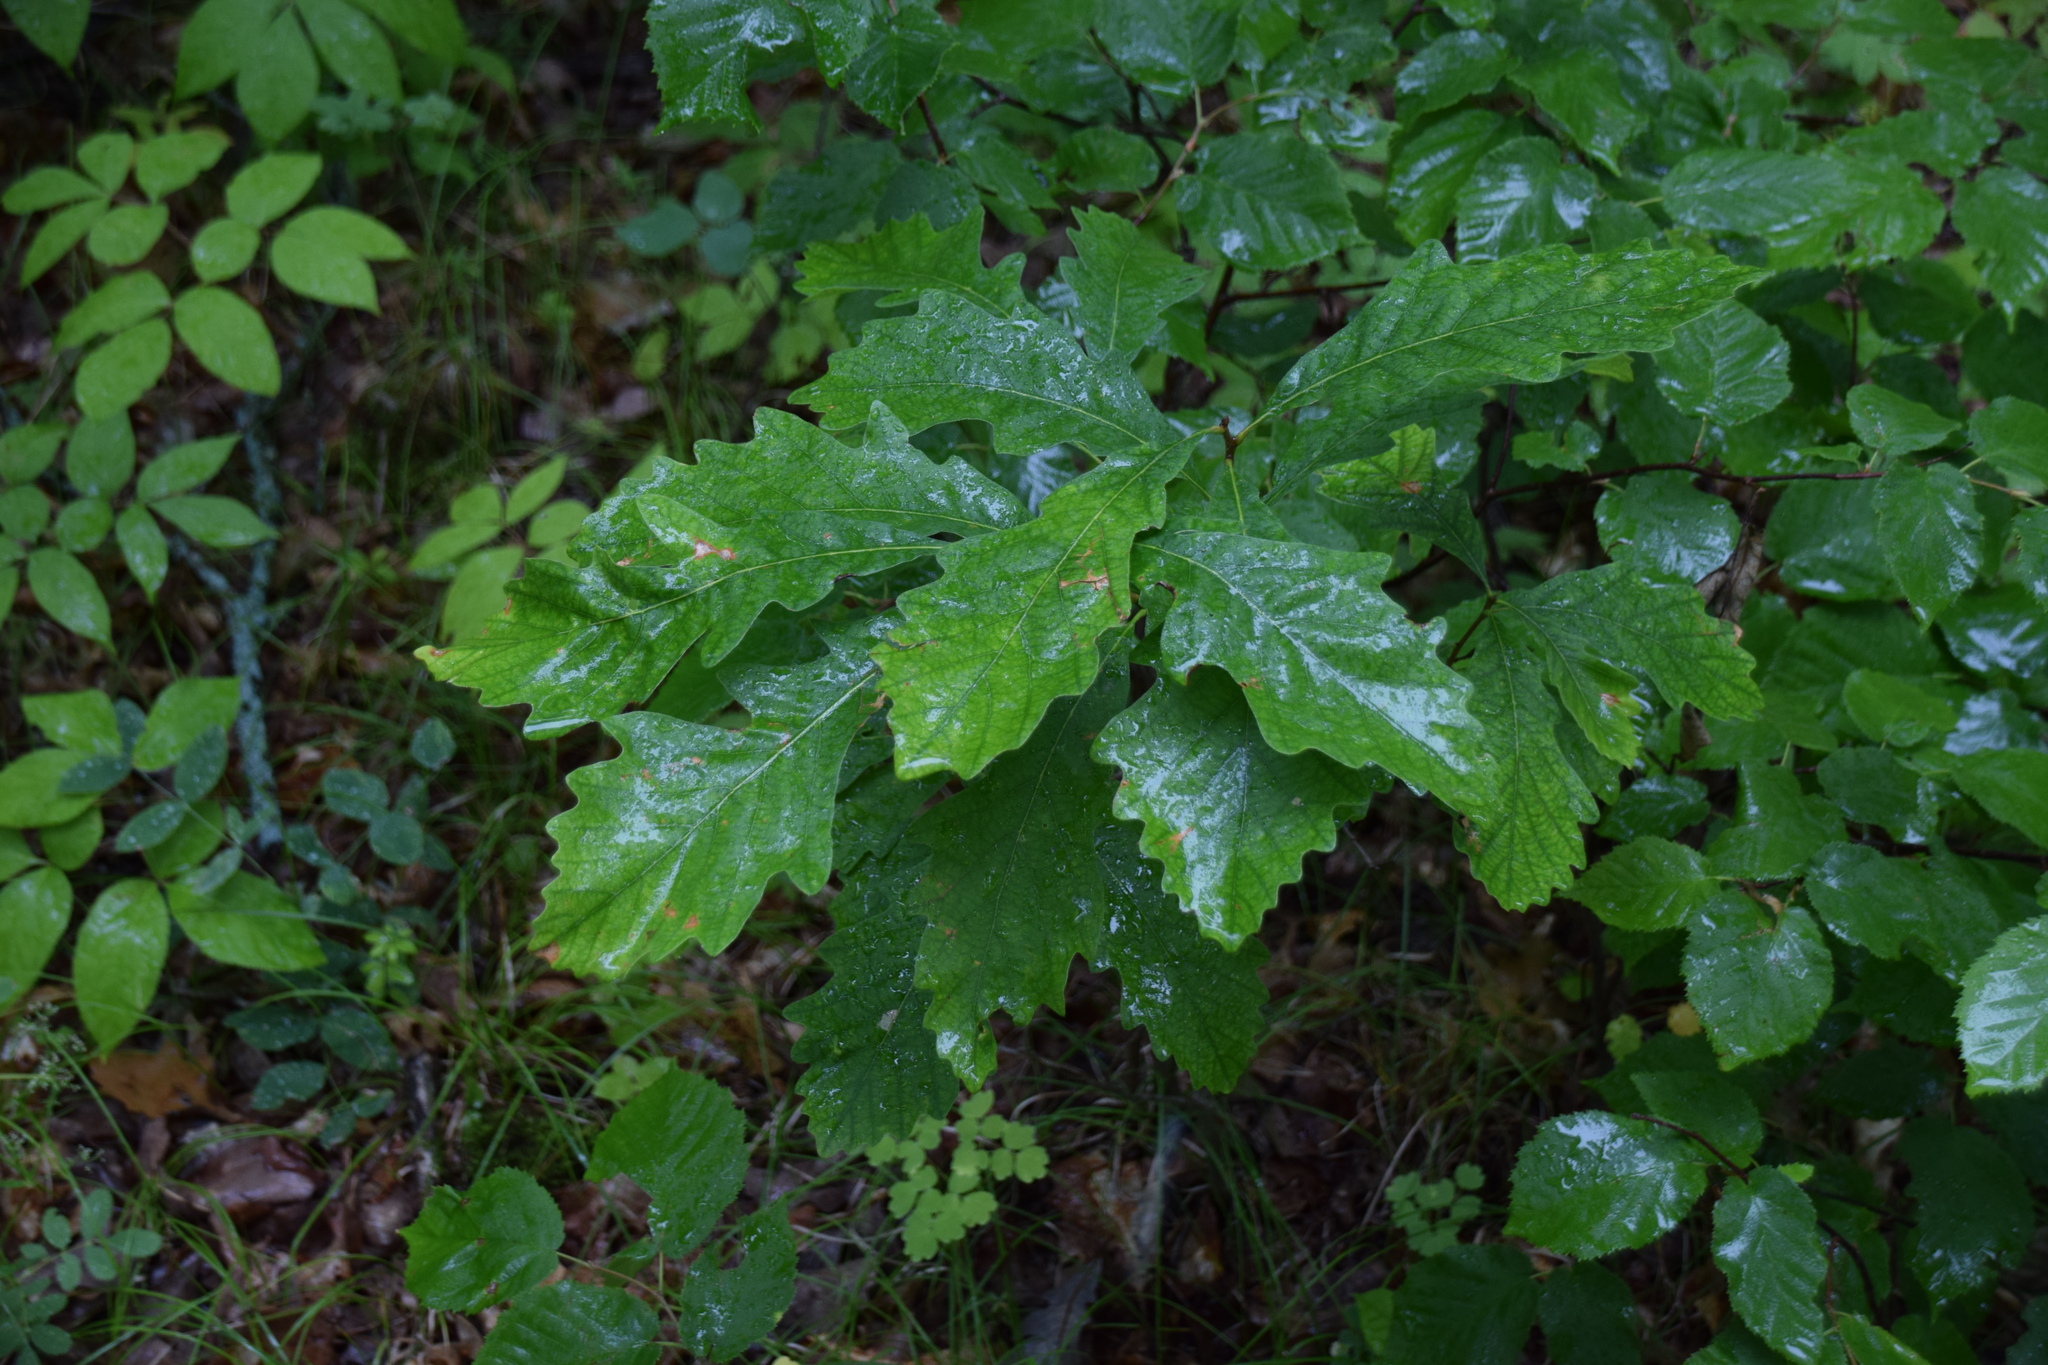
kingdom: Plantae
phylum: Tracheophyta
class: Magnoliopsida
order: Fagales
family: Fagaceae
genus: Quercus
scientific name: Quercus macrocarpa
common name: Bur oak
